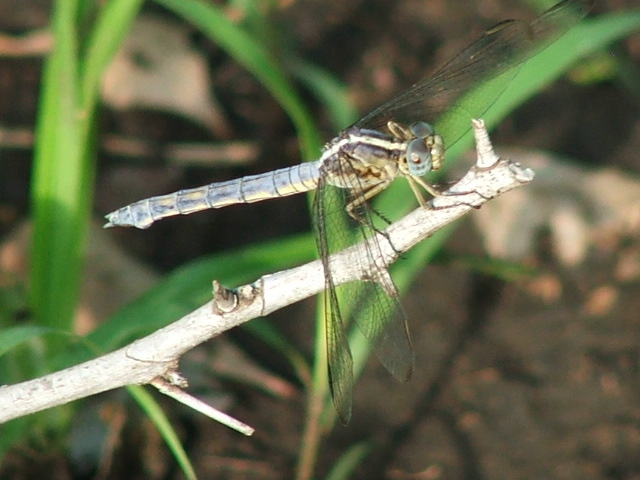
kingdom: Animalia
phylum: Arthropoda
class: Insecta
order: Odonata
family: Libellulidae
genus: Nesciothemis
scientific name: Nesciothemis farinosa
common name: Eastern blacktail
